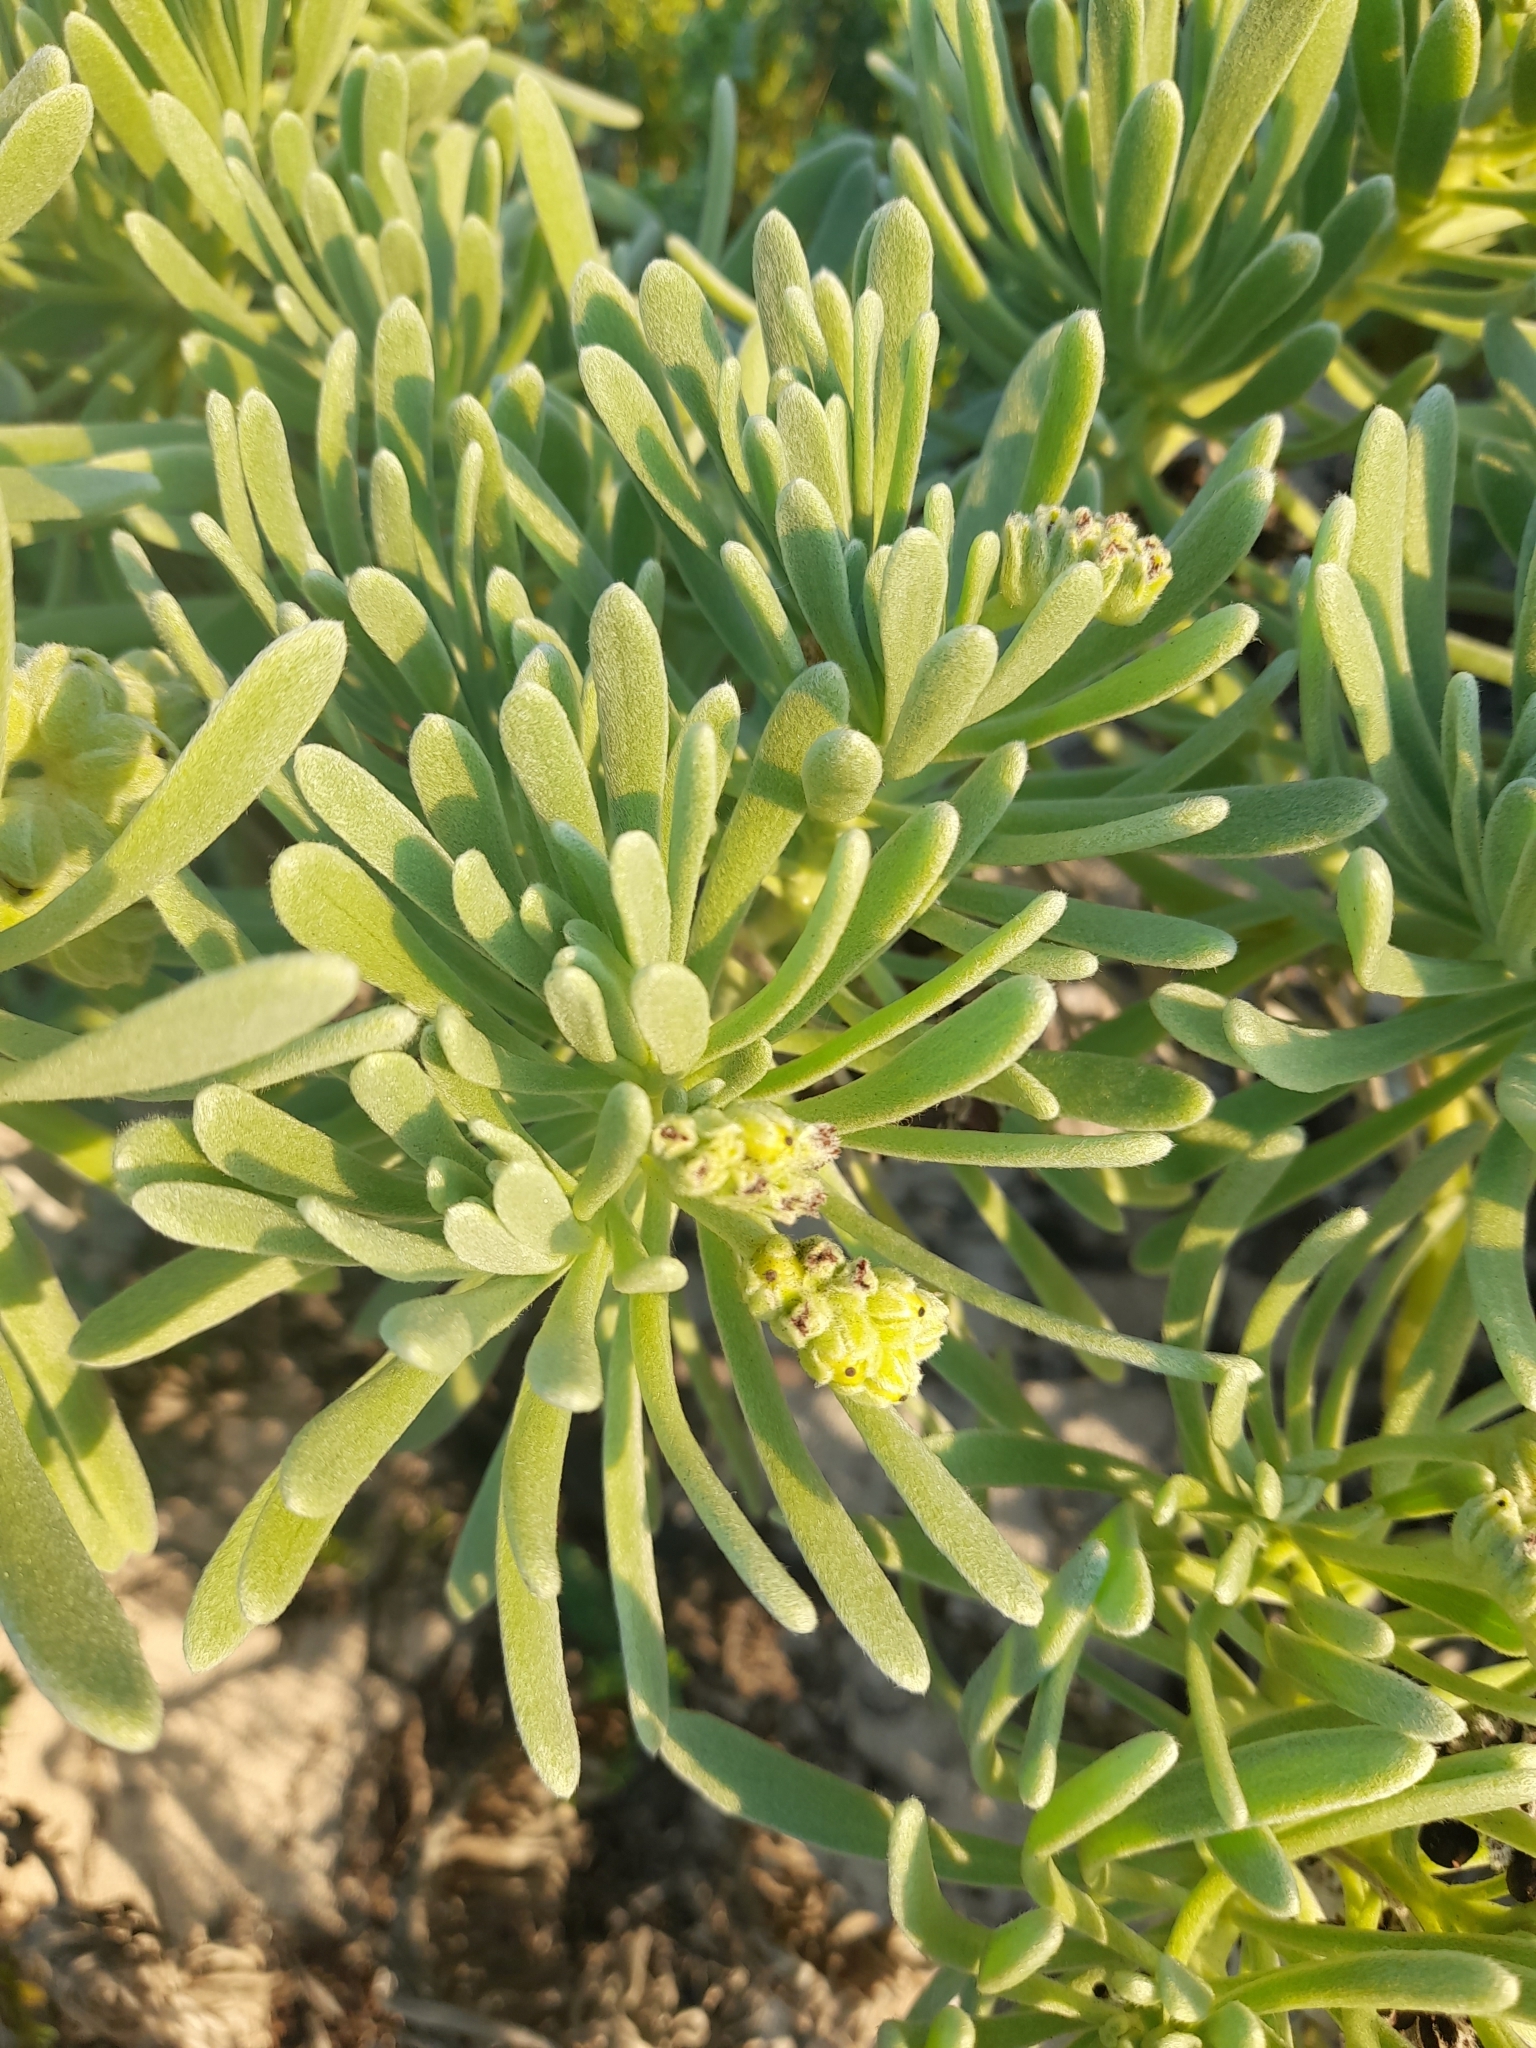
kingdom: Plantae
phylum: Tracheophyta
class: Magnoliopsida
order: Boraginales
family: Heliotropiaceae
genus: Tournefortia
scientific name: Tournefortia gnaphalodes
